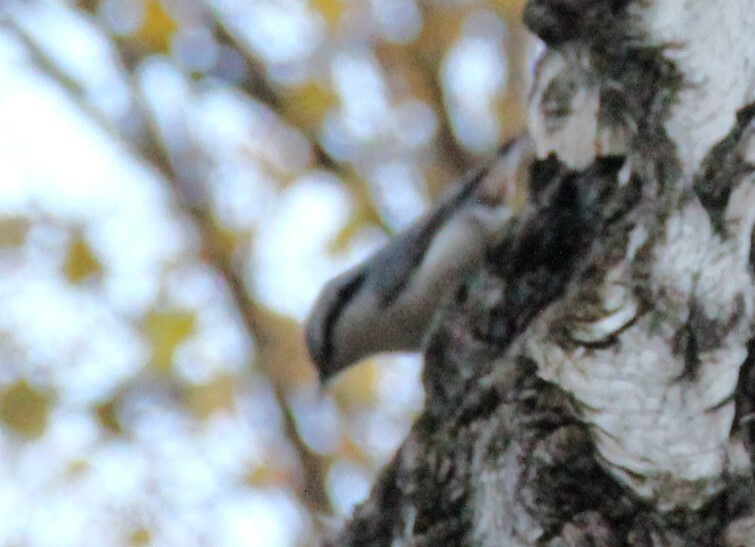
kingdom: Animalia
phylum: Chordata
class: Aves
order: Passeriformes
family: Sittidae
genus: Sitta
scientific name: Sitta europaea
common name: Eurasian nuthatch
